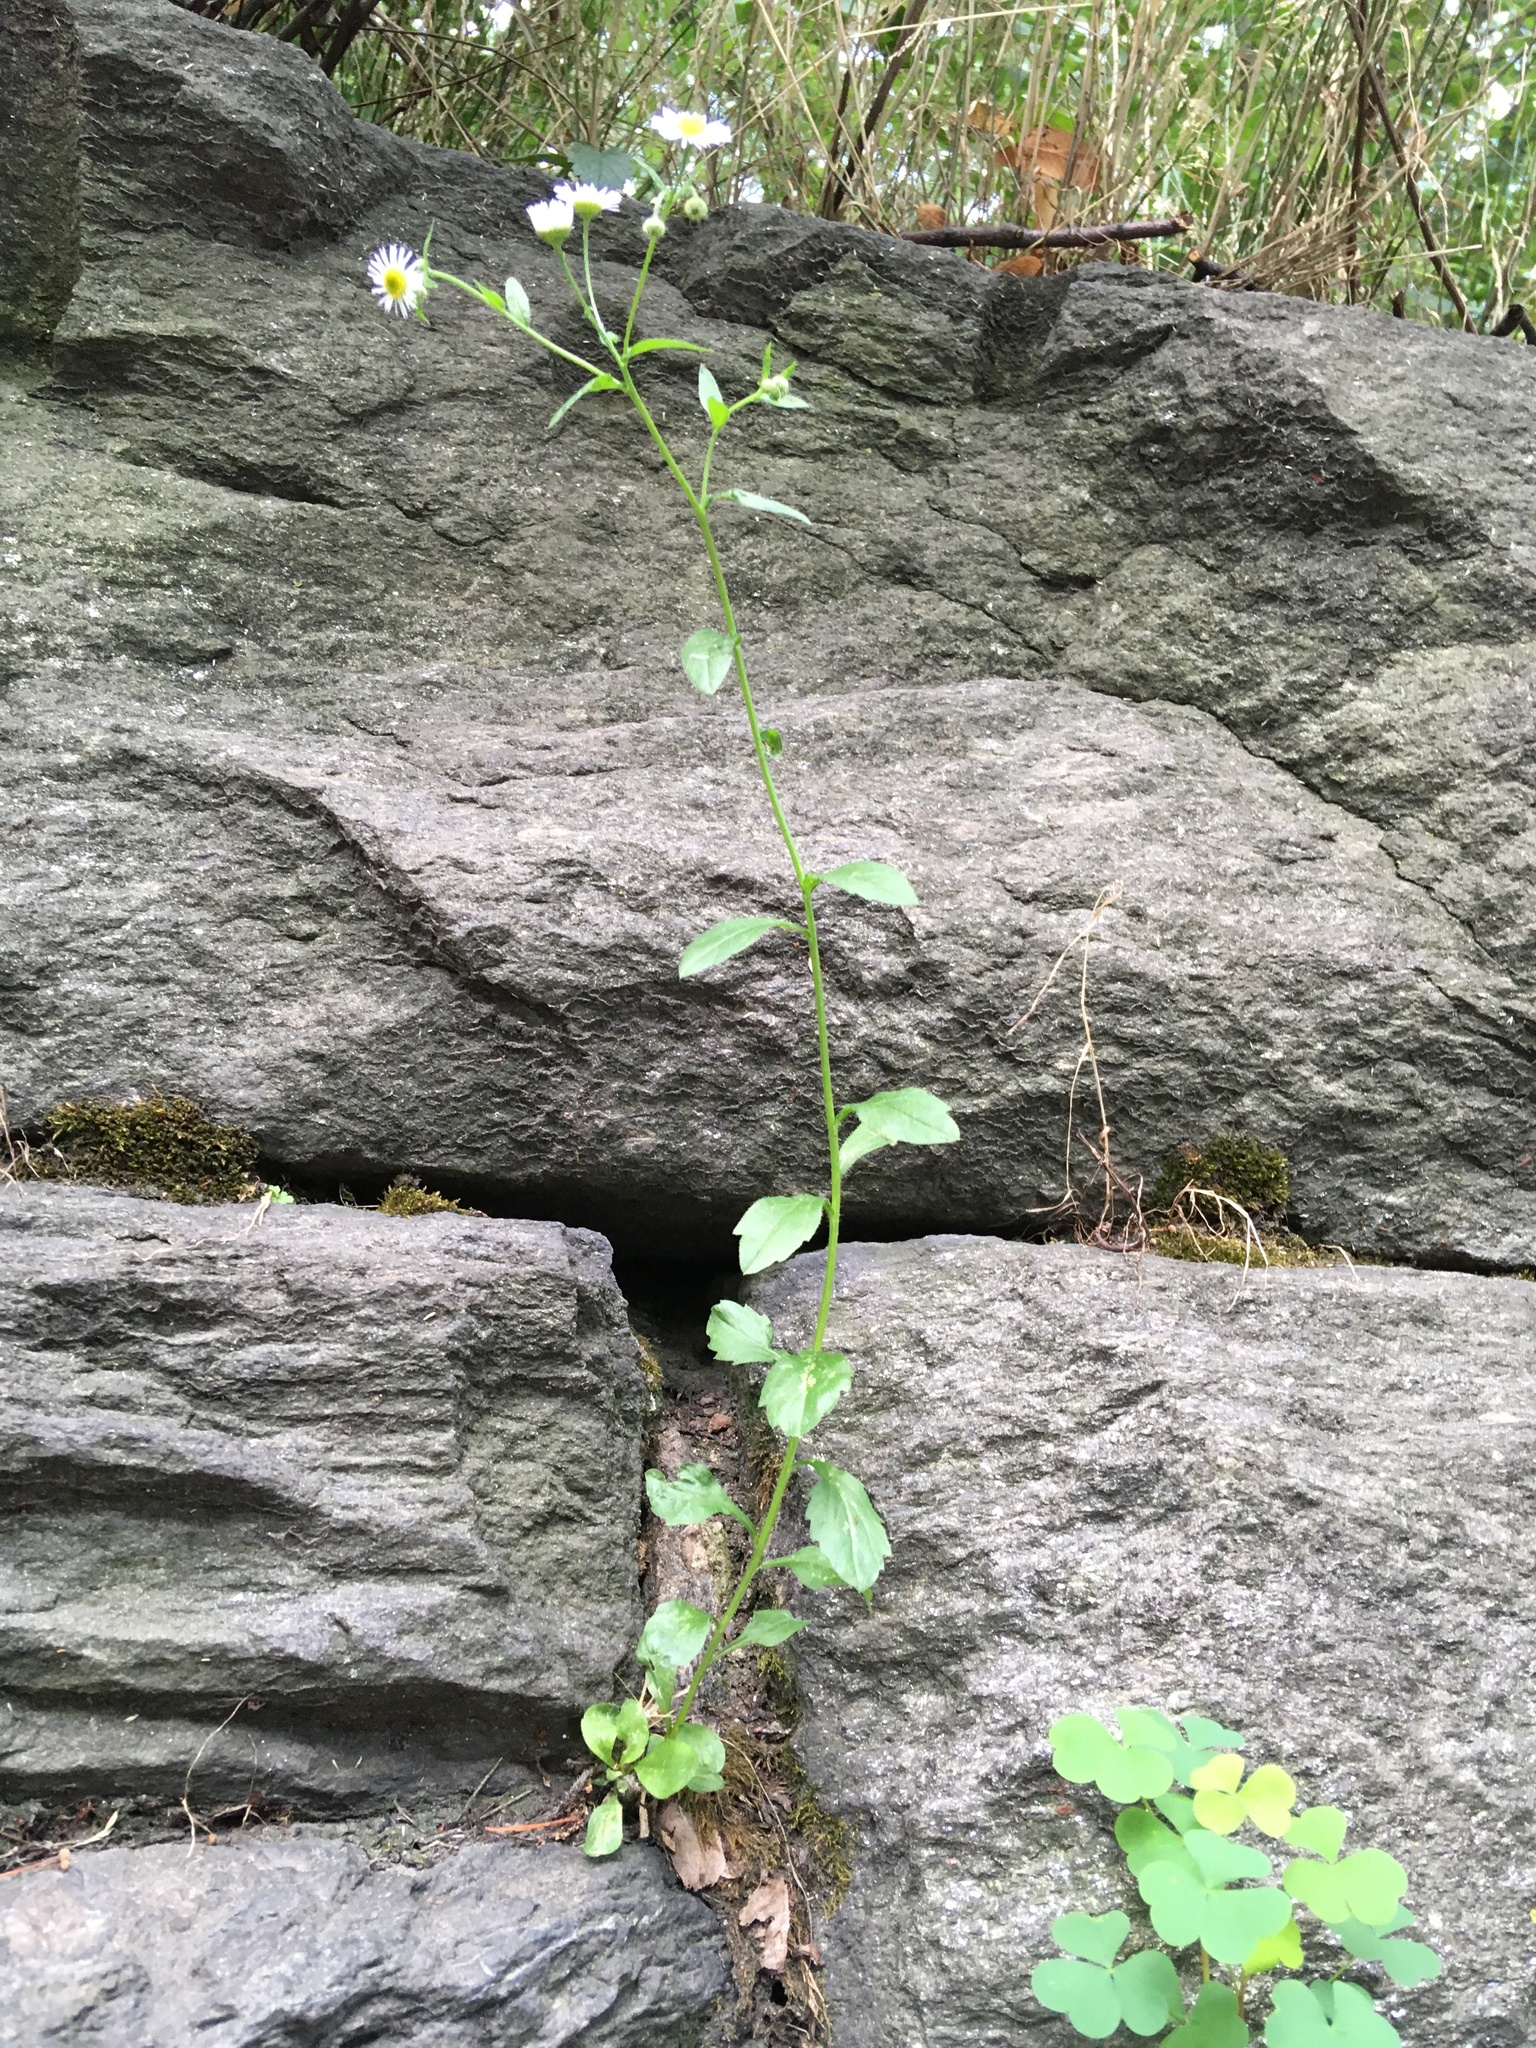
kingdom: Plantae
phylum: Tracheophyta
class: Magnoliopsida
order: Asterales
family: Asteraceae
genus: Erigeron
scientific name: Erigeron strigosus
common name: Common eastern fleabane
